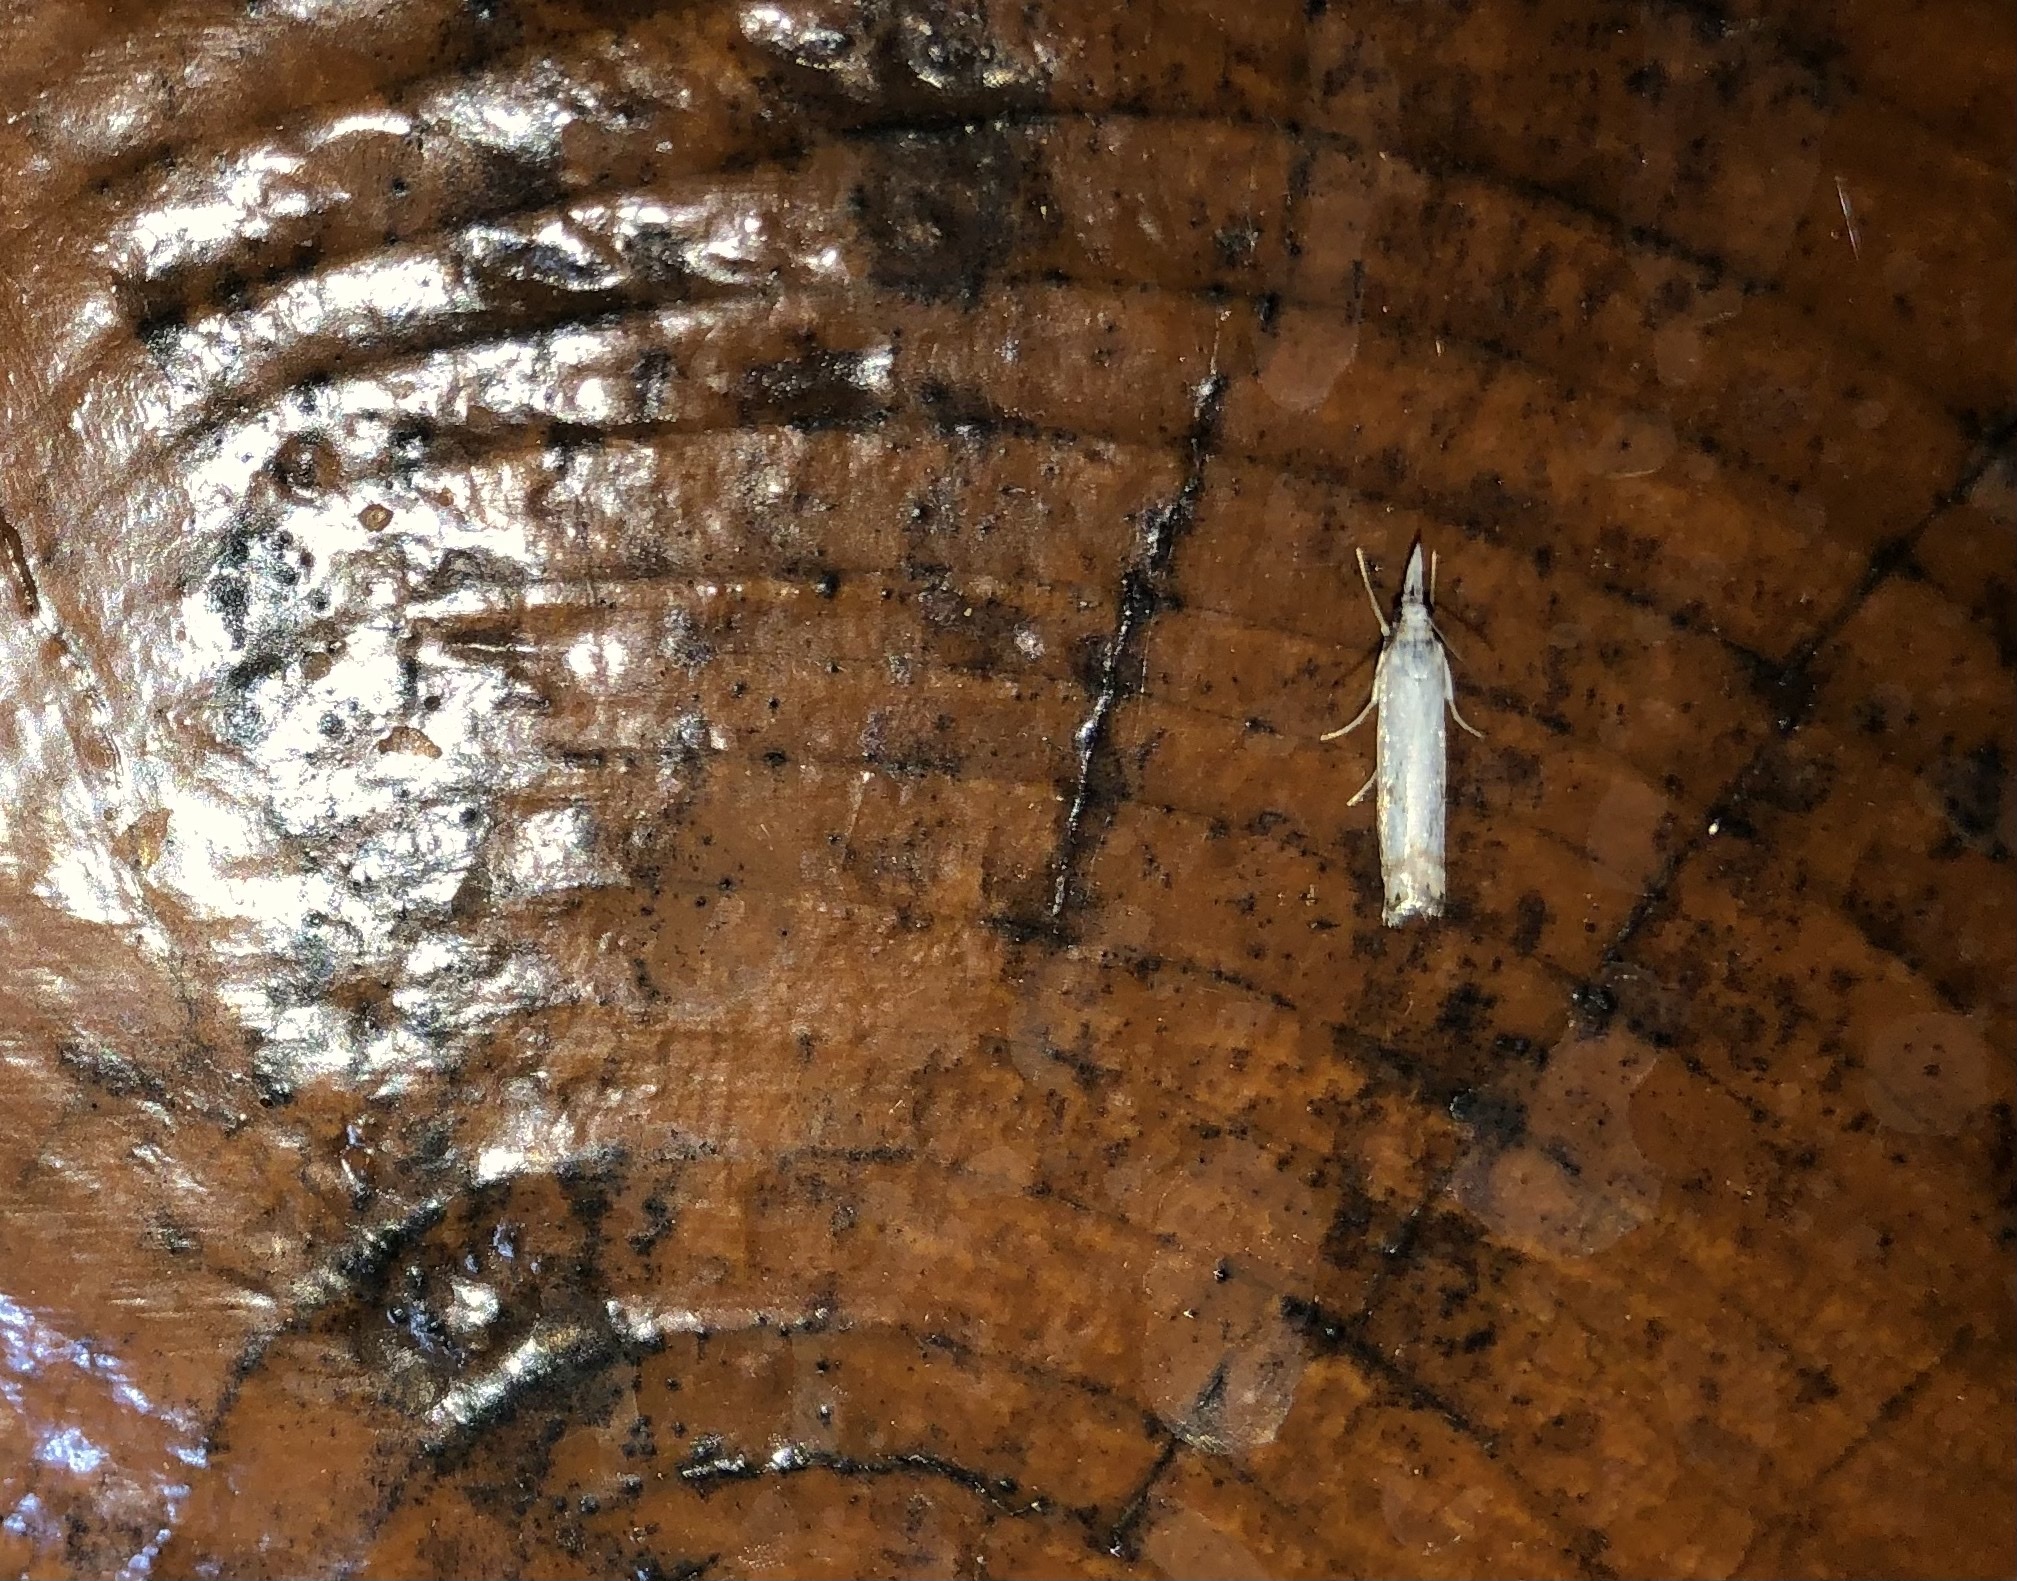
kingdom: Animalia
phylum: Arthropoda
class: Insecta
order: Lepidoptera
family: Crambidae
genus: Crambus
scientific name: Crambus albellus
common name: Small white grass-veneer
